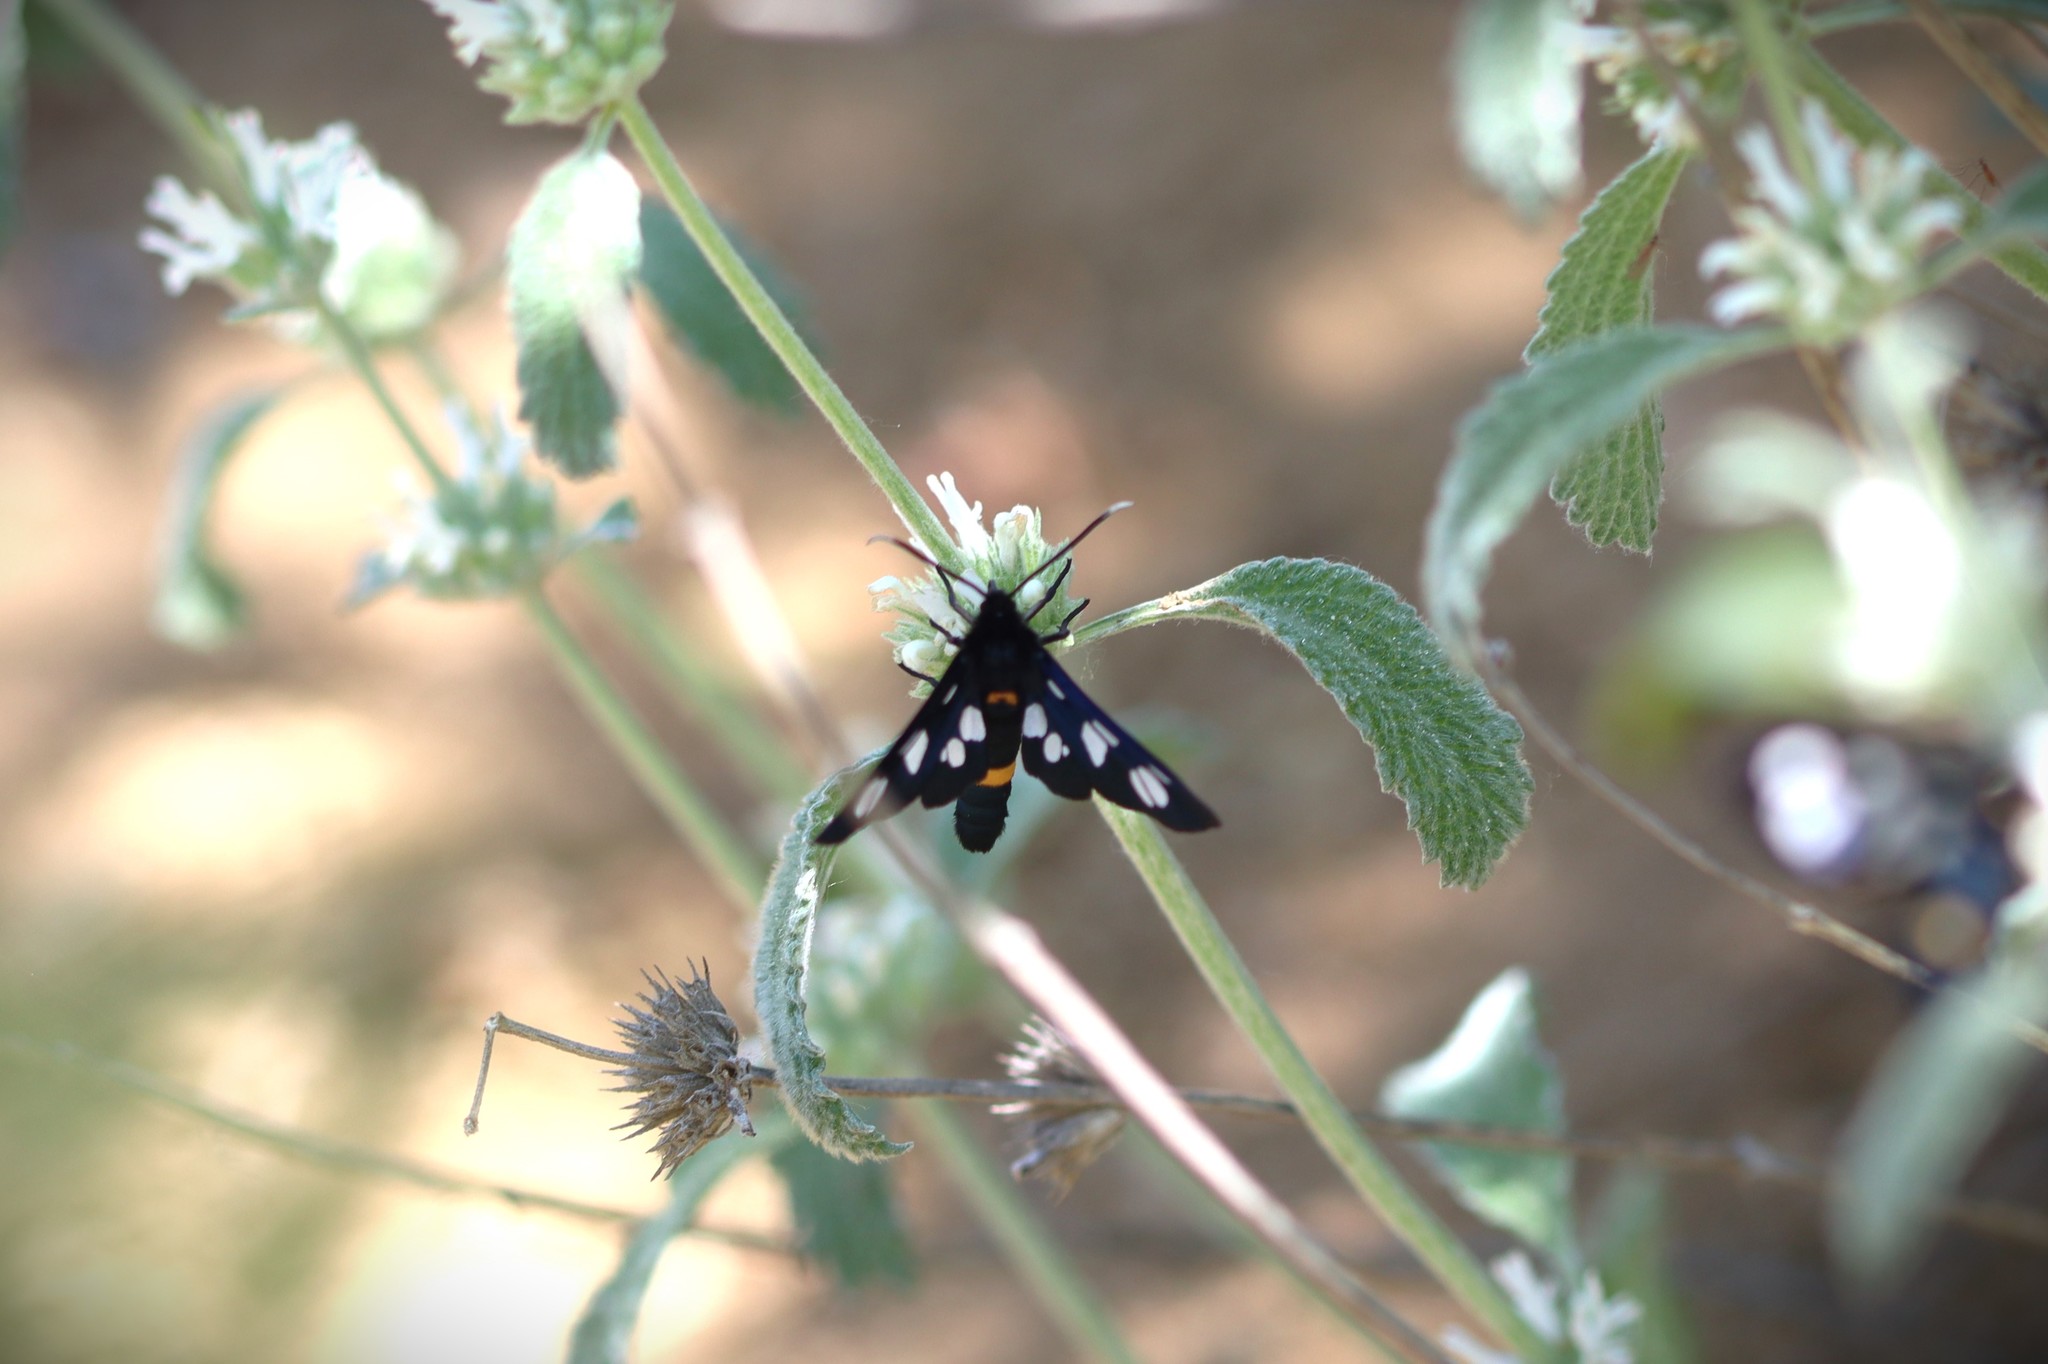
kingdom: Animalia
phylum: Arthropoda
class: Insecta
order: Lepidoptera
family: Erebidae
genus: Amata
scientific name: Amata phegea
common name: Nine-spotted
